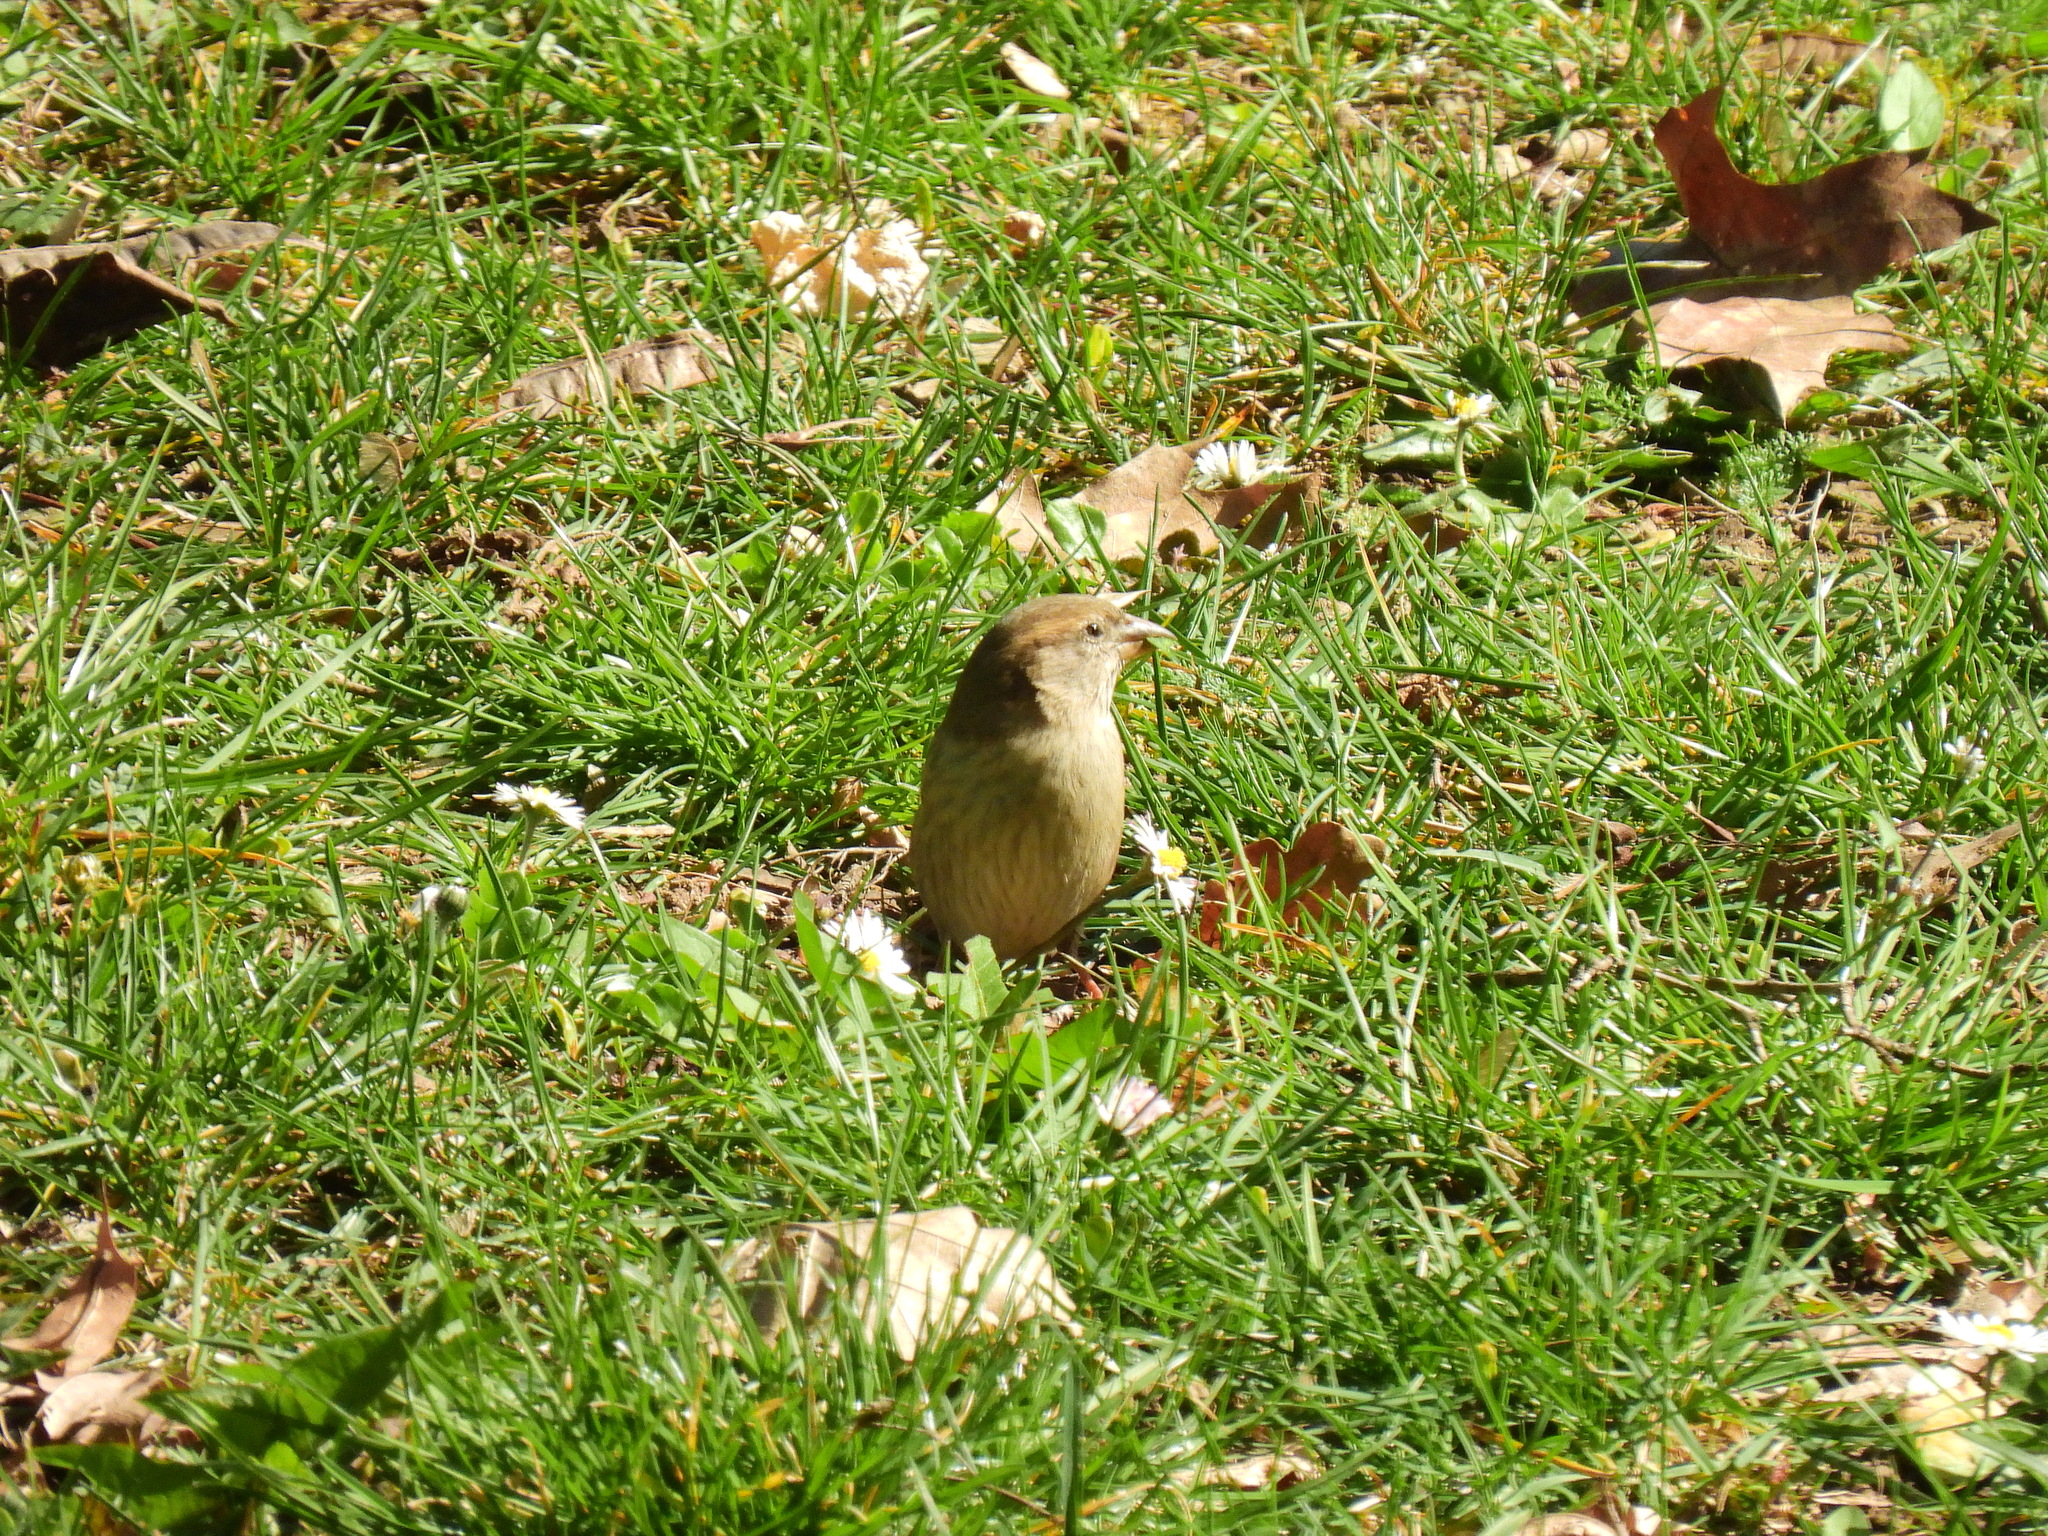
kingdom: Animalia
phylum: Chordata
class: Aves
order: Passeriformes
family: Fringillidae
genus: Fringilla
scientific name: Fringilla coelebs
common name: Common chaffinch
